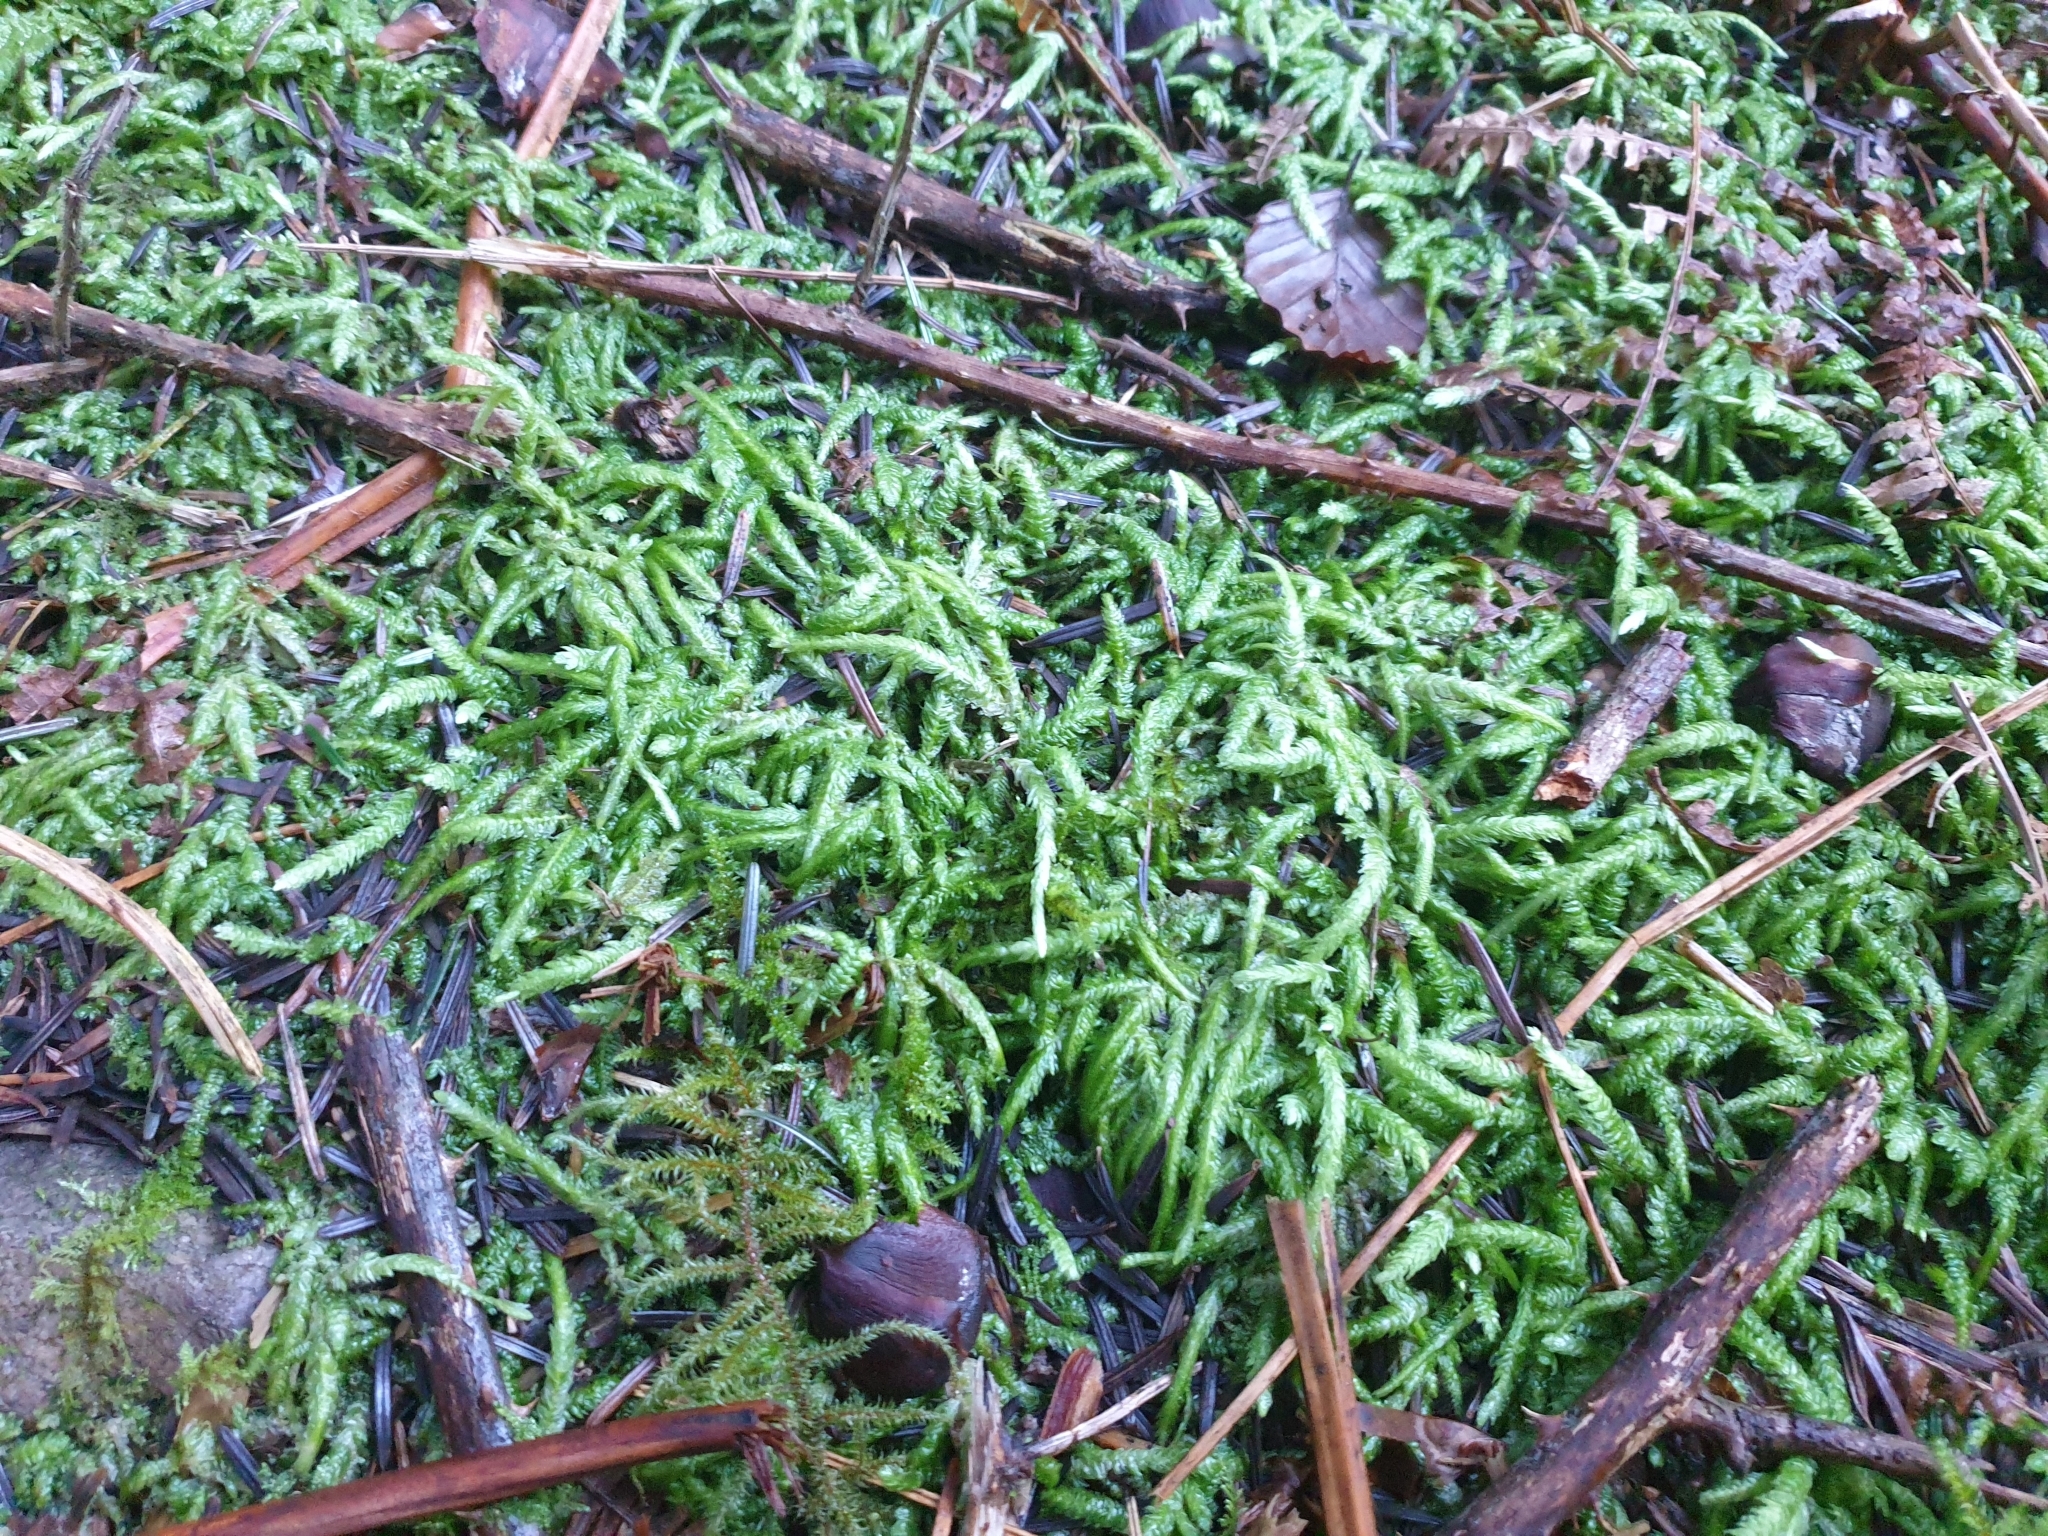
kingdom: Plantae
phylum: Bryophyta
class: Bryopsida
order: Hypnales
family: Plagiotheciaceae
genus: Plagiothecium
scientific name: Plagiothecium undulatum
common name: Waved silk-moss
